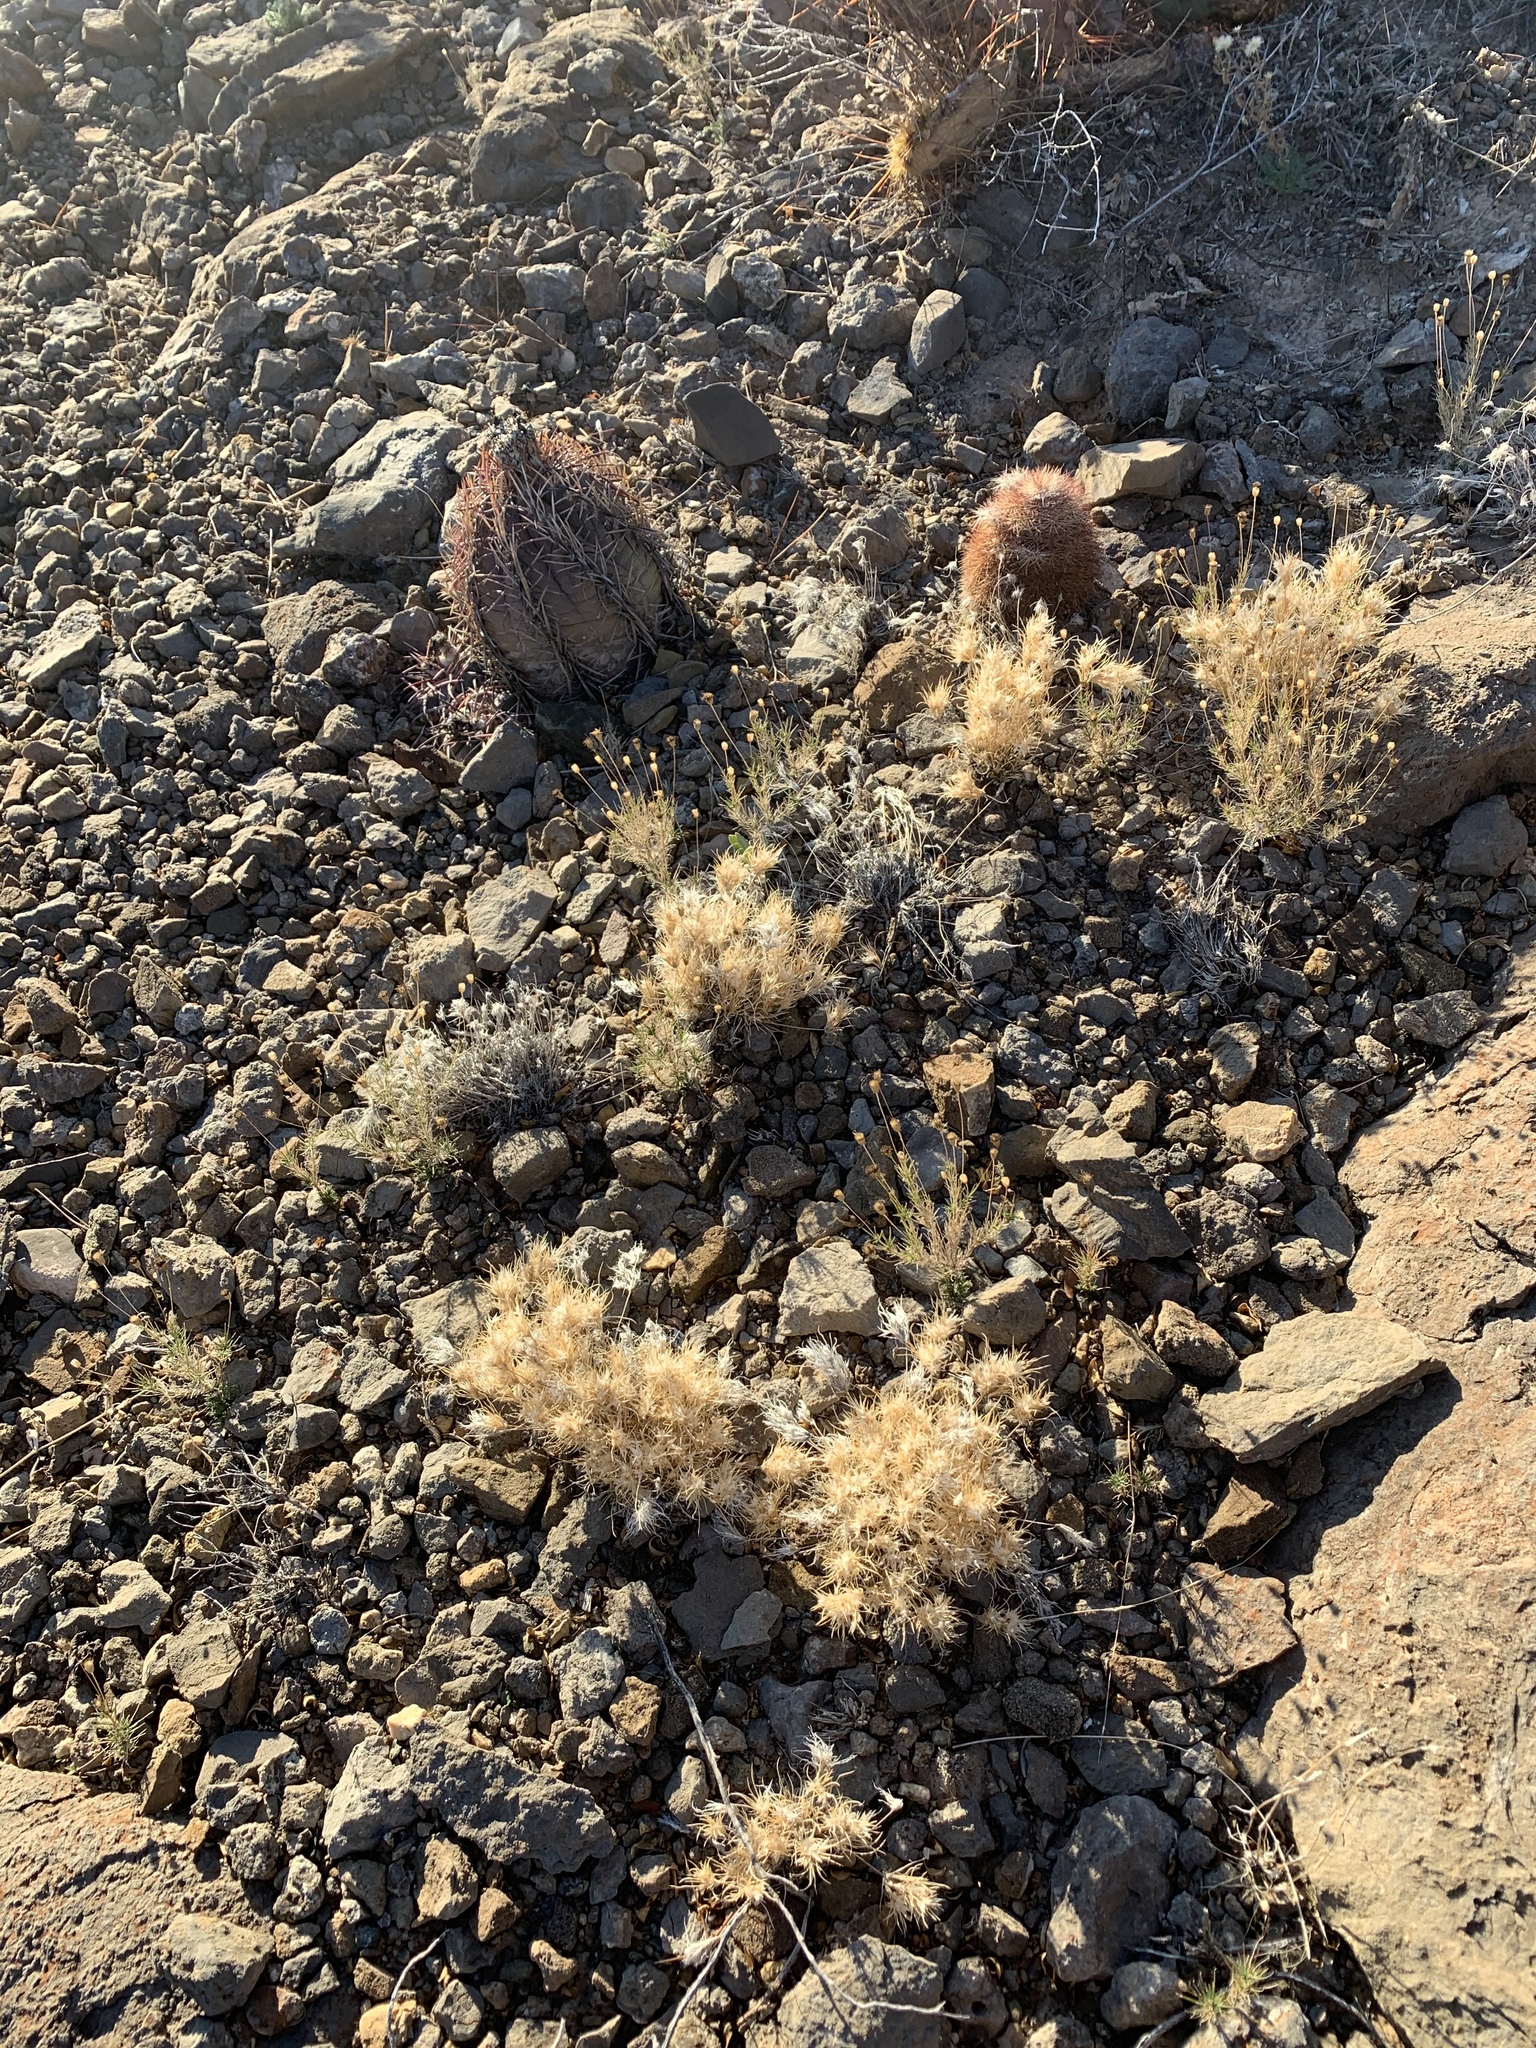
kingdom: Plantae
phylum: Tracheophyta
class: Liliopsida
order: Poales
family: Poaceae
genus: Dasyochloa
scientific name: Dasyochloa pulchella
